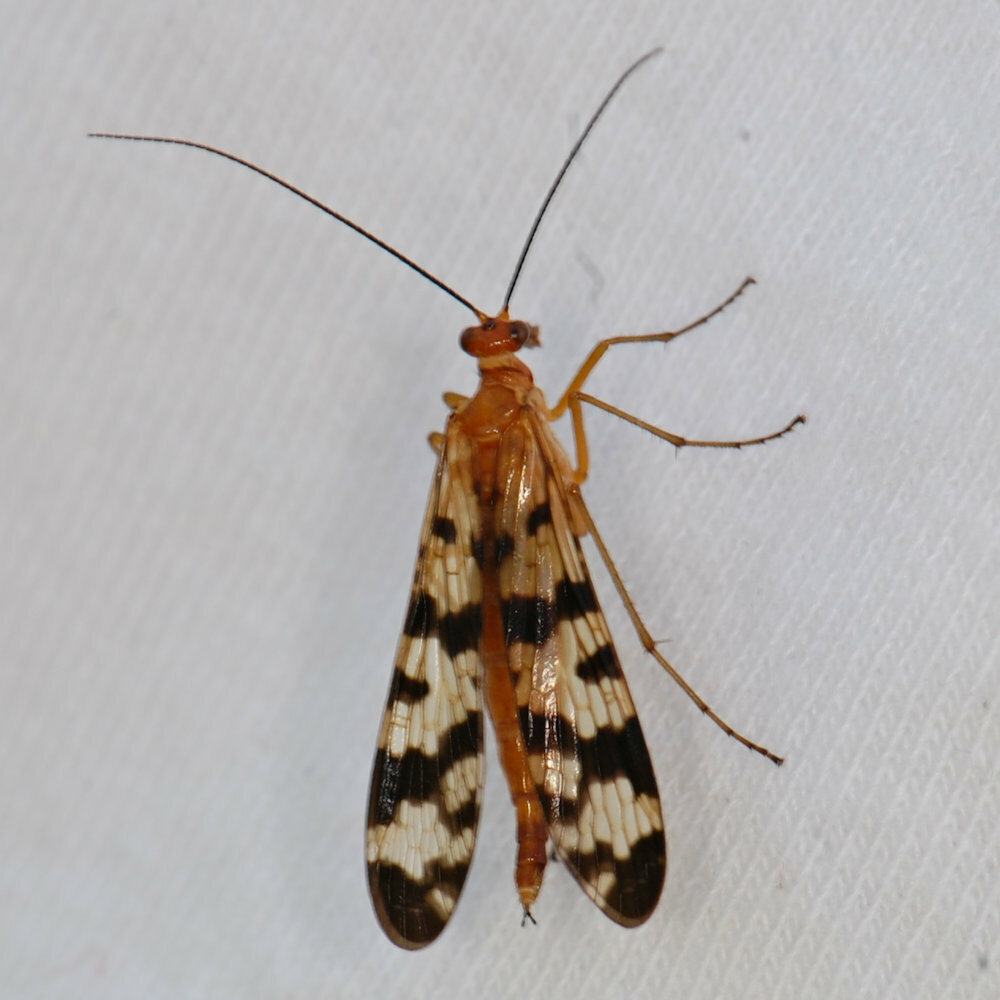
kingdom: Animalia
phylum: Arthropoda
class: Insecta
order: Mecoptera
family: Panorpidae
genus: Panorpa
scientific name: Panorpa subfurcata
